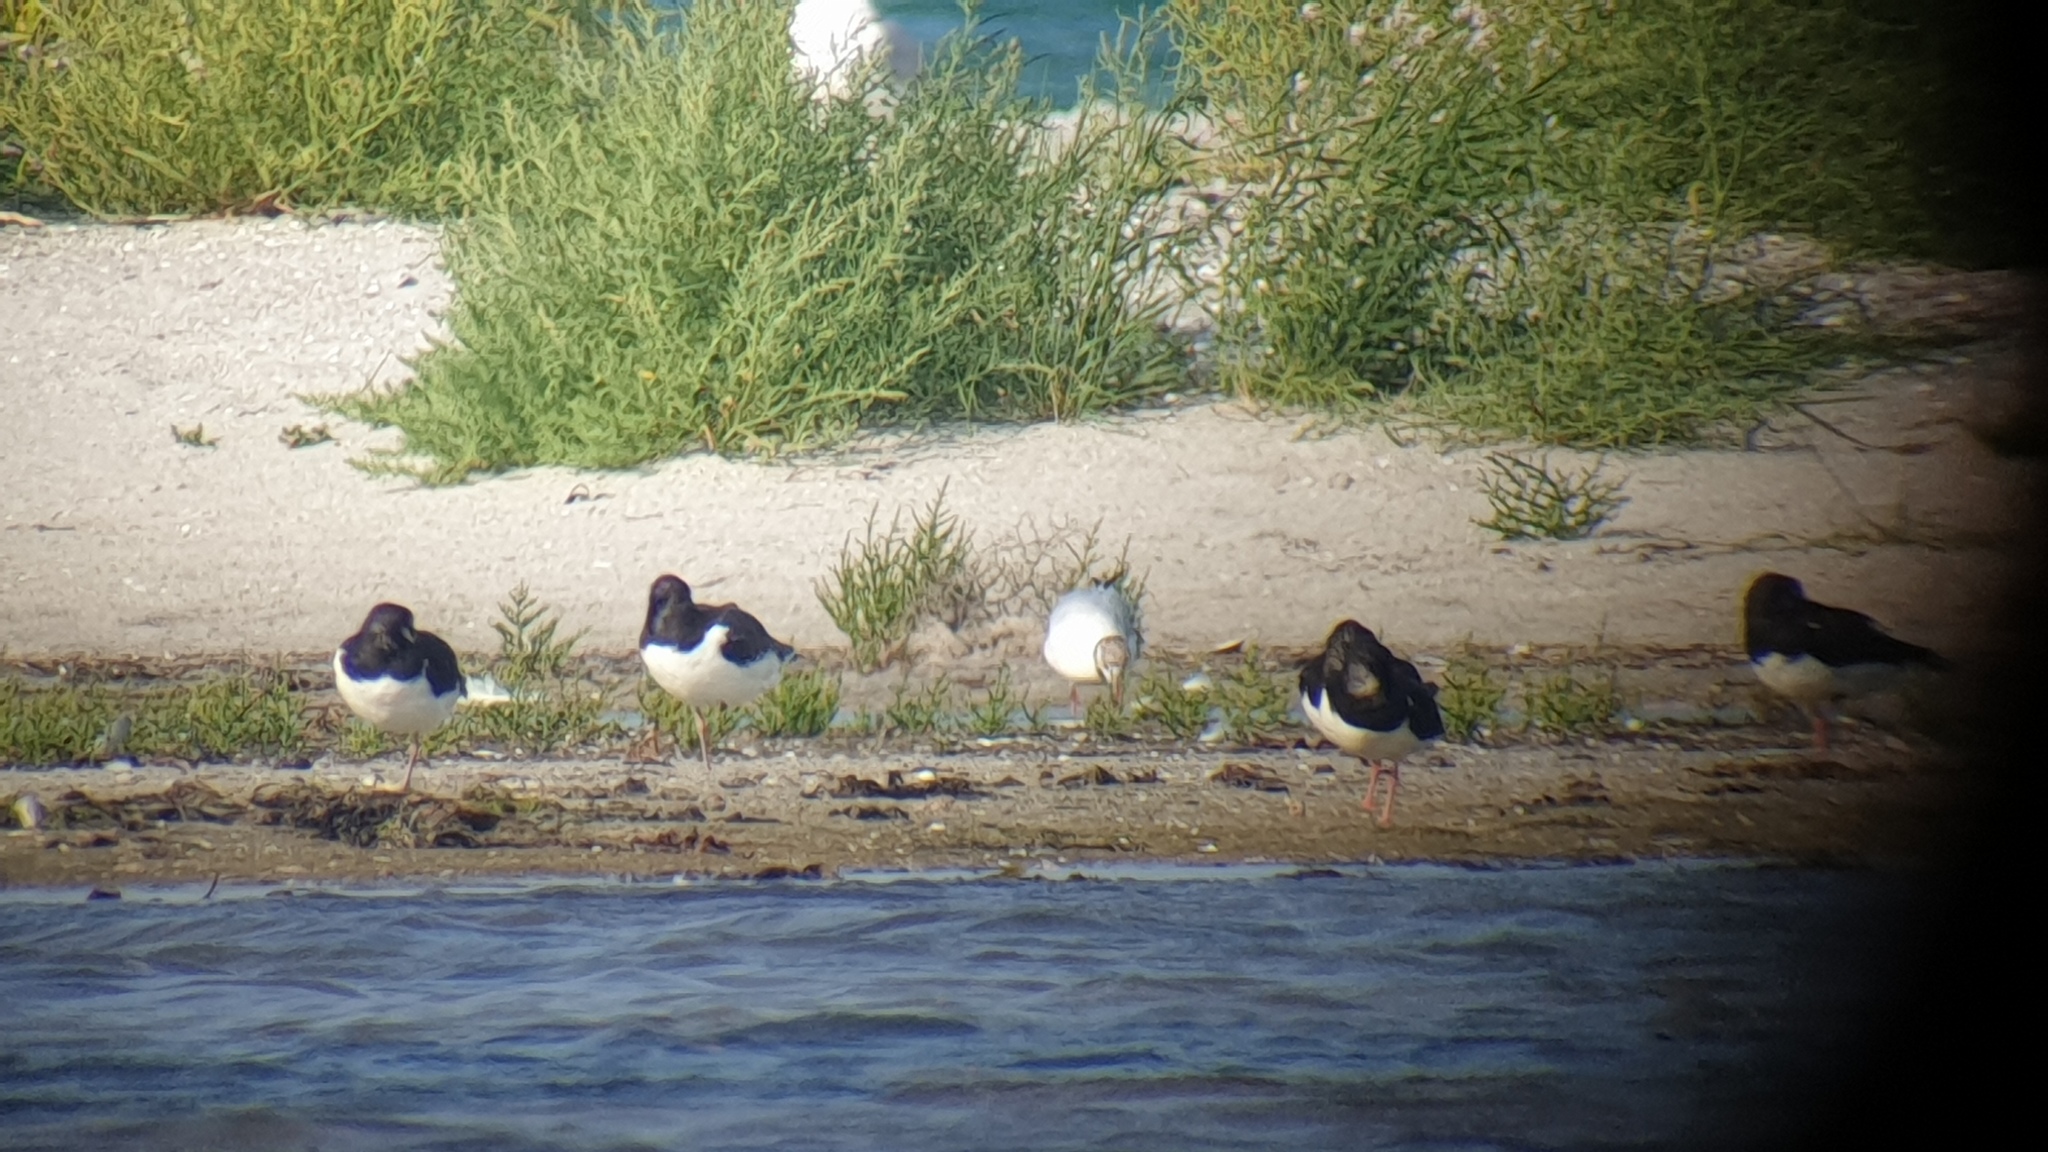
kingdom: Animalia
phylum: Chordata
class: Aves
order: Charadriiformes
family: Haematopodidae
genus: Haematopus
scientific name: Haematopus ostralegus
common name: Eurasian oystercatcher
